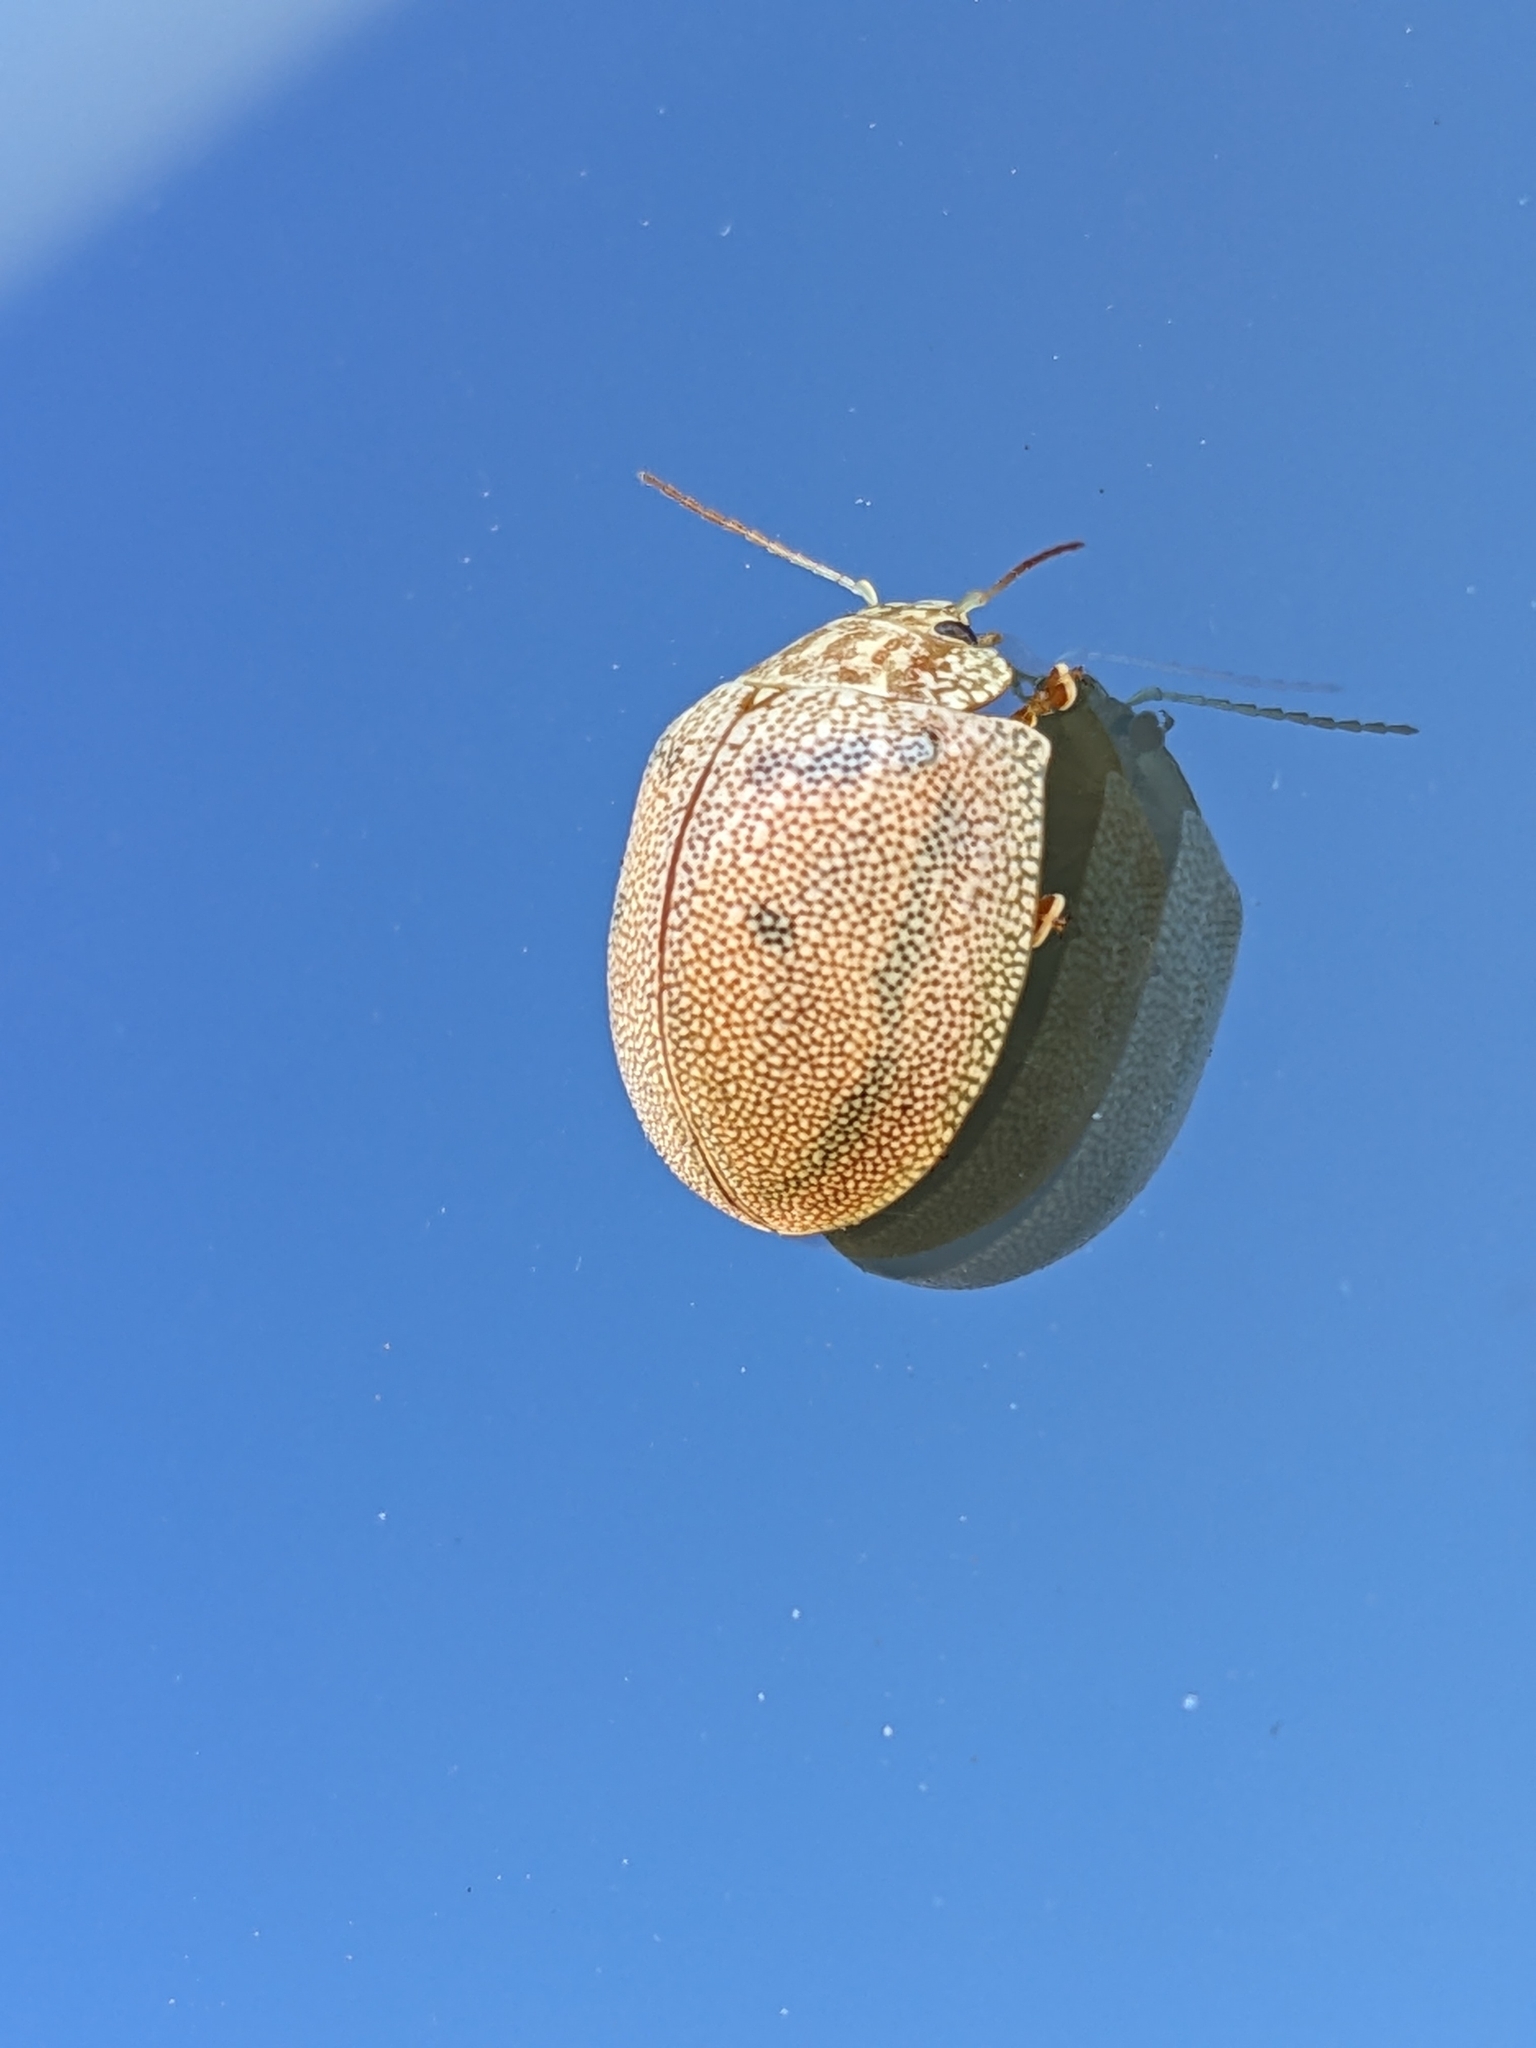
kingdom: Animalia
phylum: Arthropoda
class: Insecta
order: Coleoptera
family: Chrysomelidae
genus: Paropsis
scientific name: Paropsis
